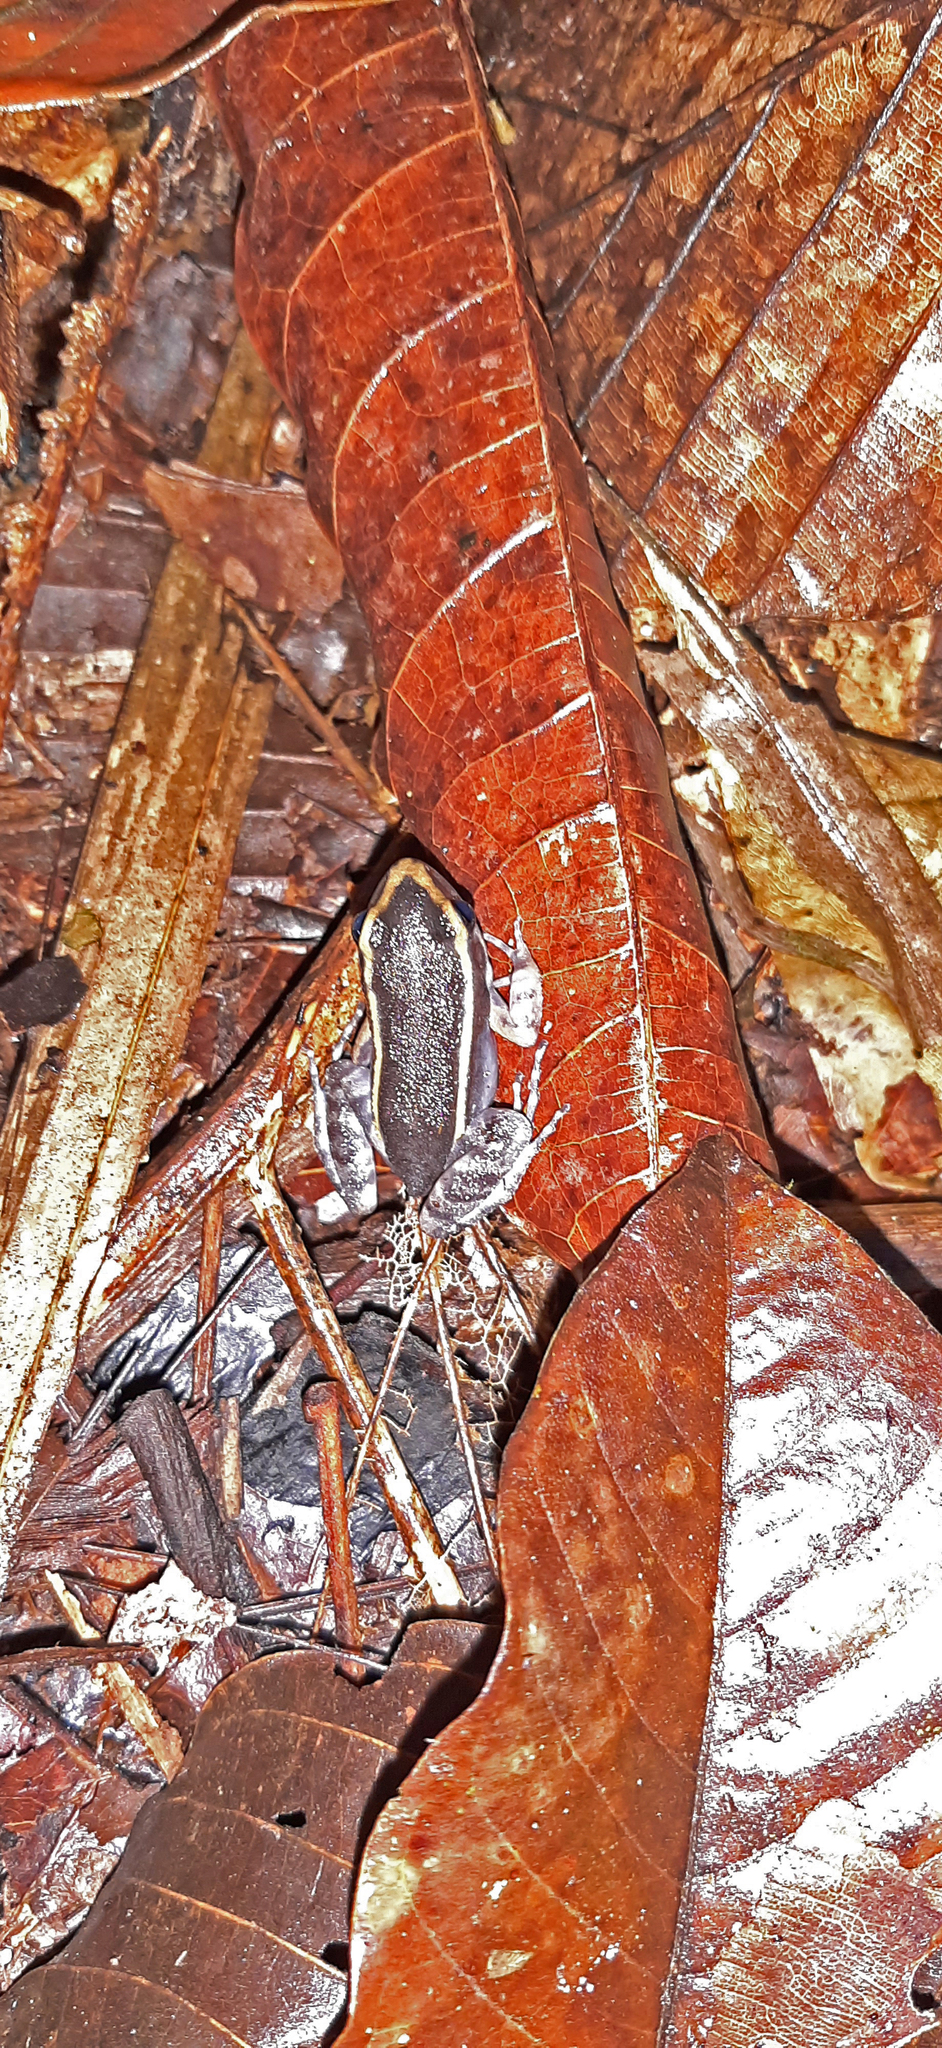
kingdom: Animalia
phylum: Chordata
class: Amphibia
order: Anura
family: Leptodactylidae
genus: Lithodytes
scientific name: Lithodytes lineatus
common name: Gold-striped frog
